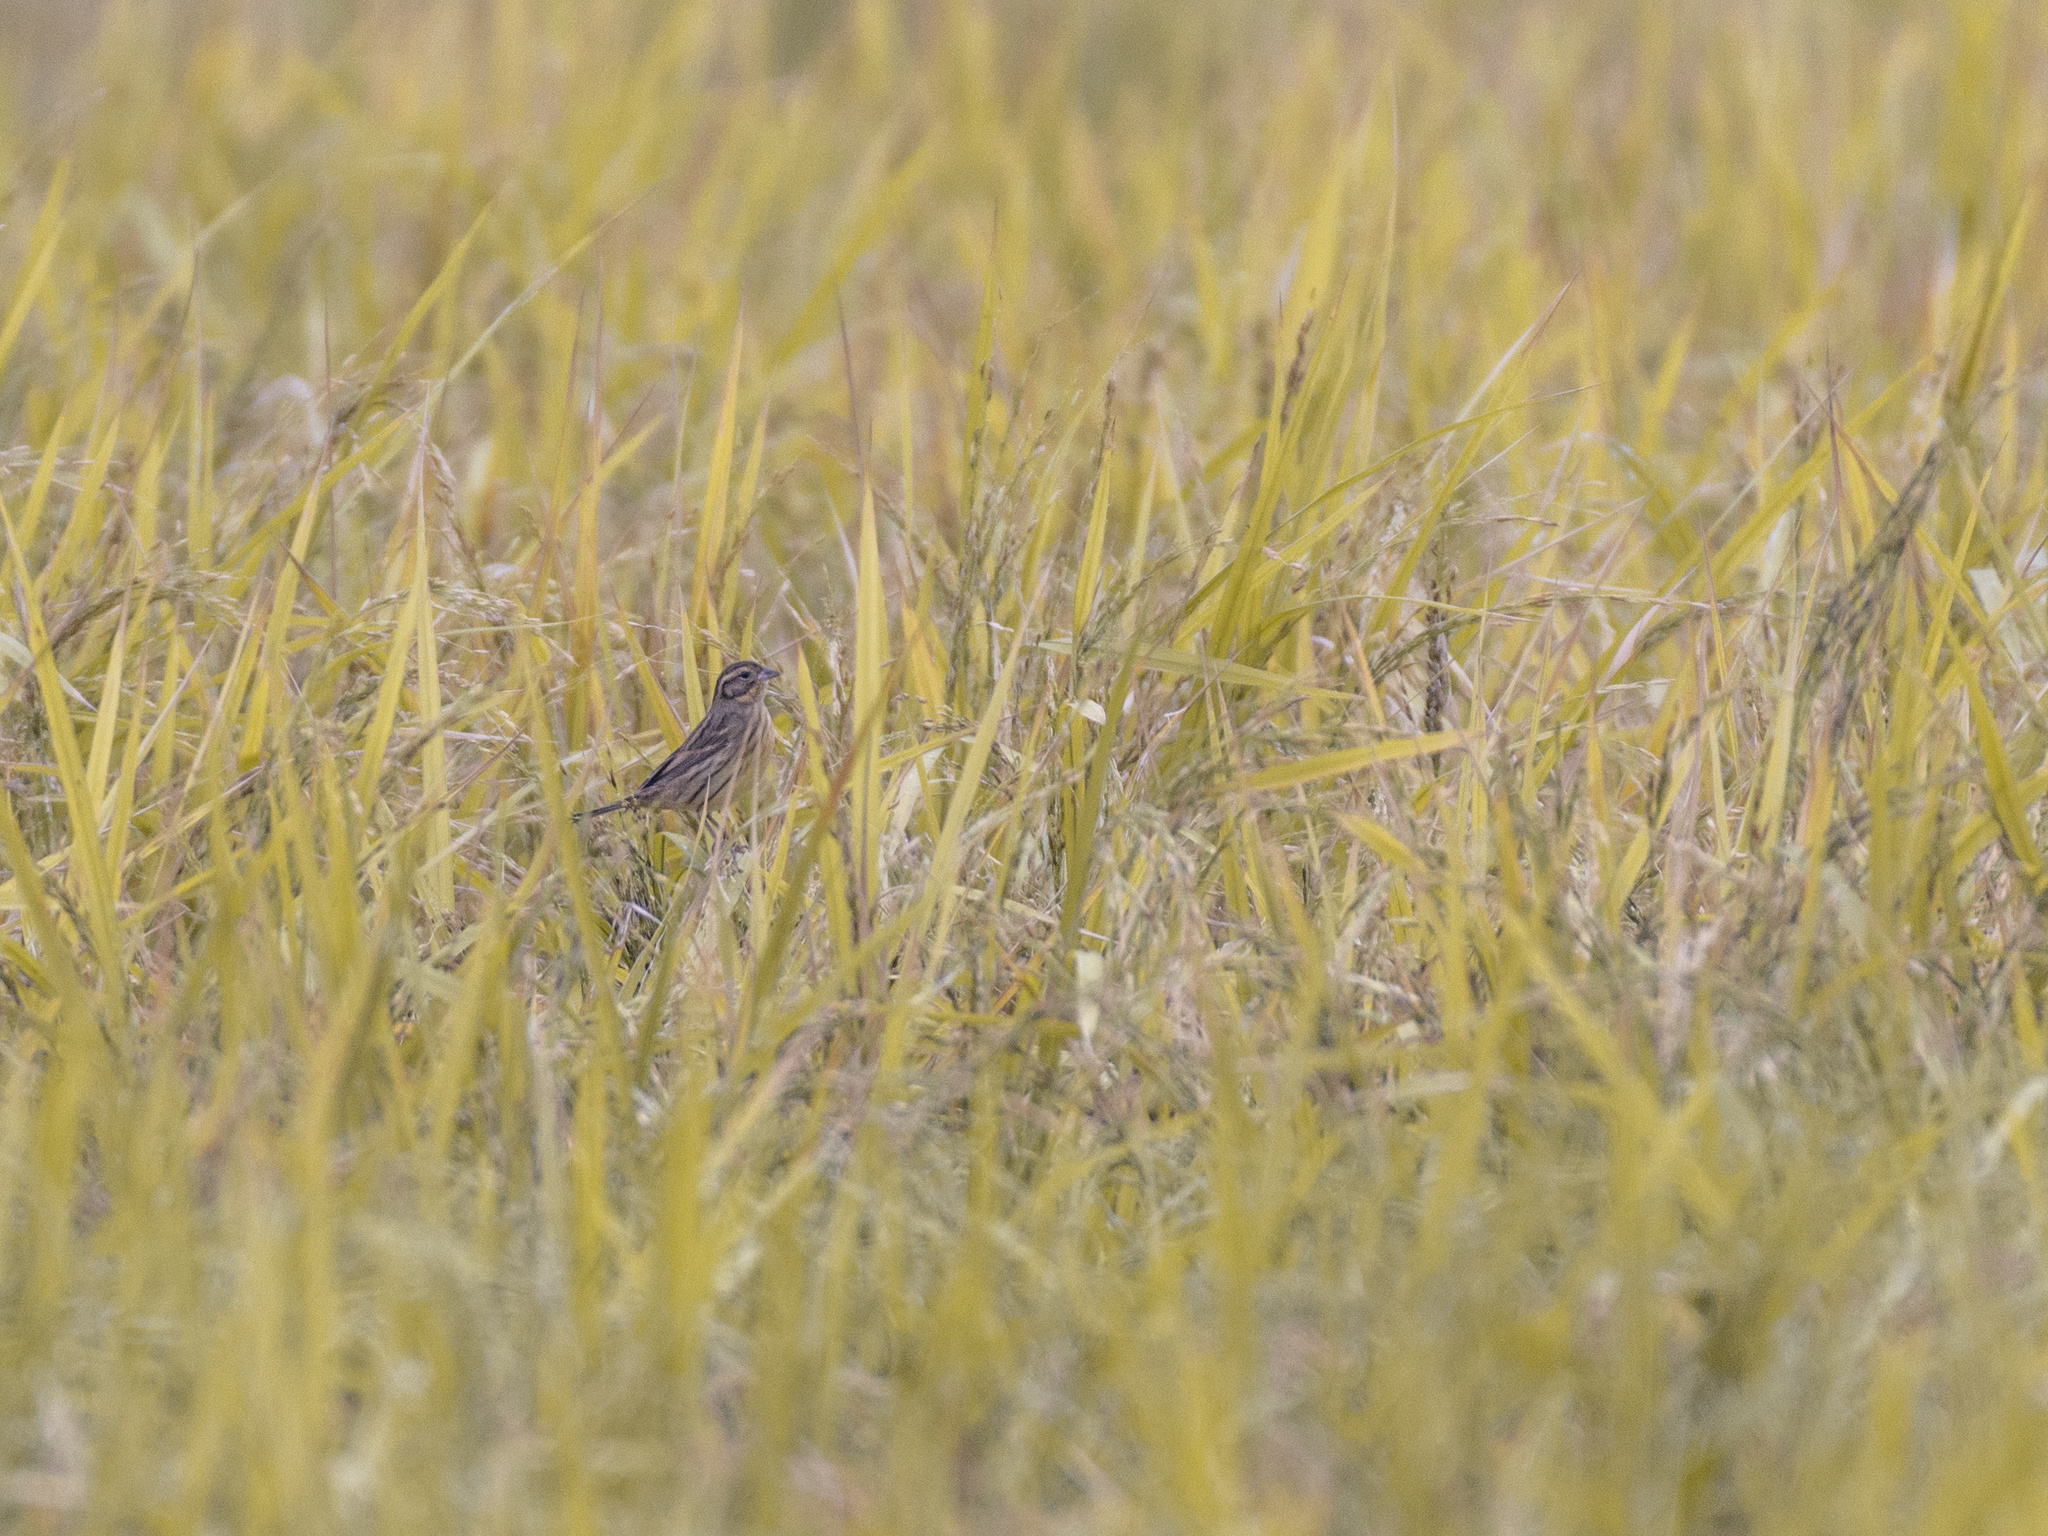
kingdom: Animalia
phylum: Chordata
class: Aves
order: Passeriformes
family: Emberizidae
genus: Emberiza
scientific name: Emberiza aureola
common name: Yellow-breasted bunting
